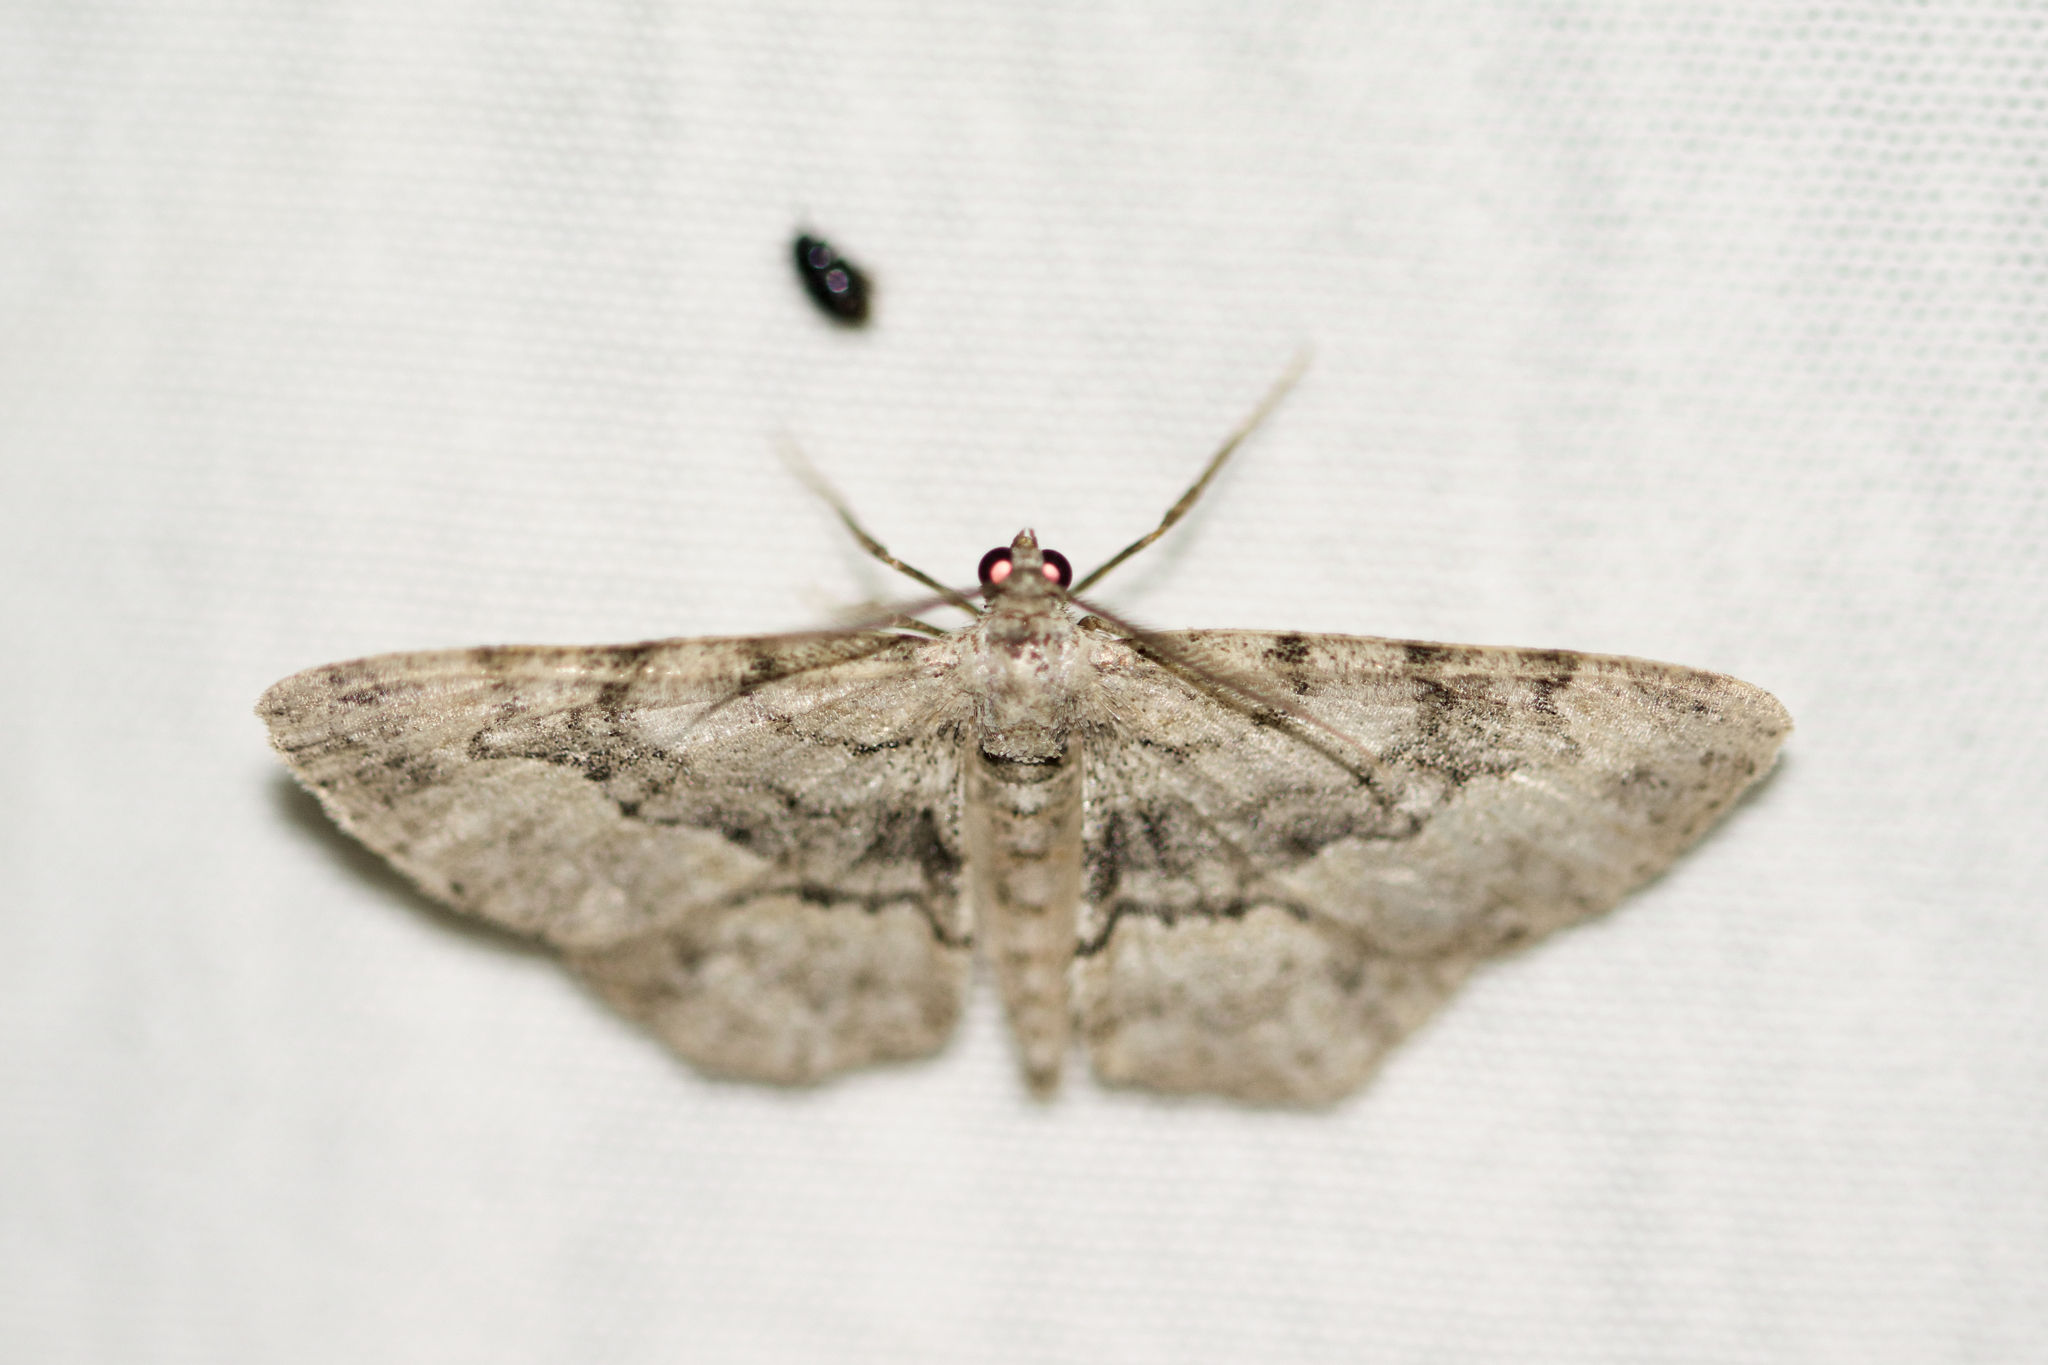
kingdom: Animalia
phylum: Arthropoda
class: Insecta
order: Lepidoptera
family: Geometridae
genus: Iridopsis
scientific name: Iridopsis ephyraria
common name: Pale-winged gray
